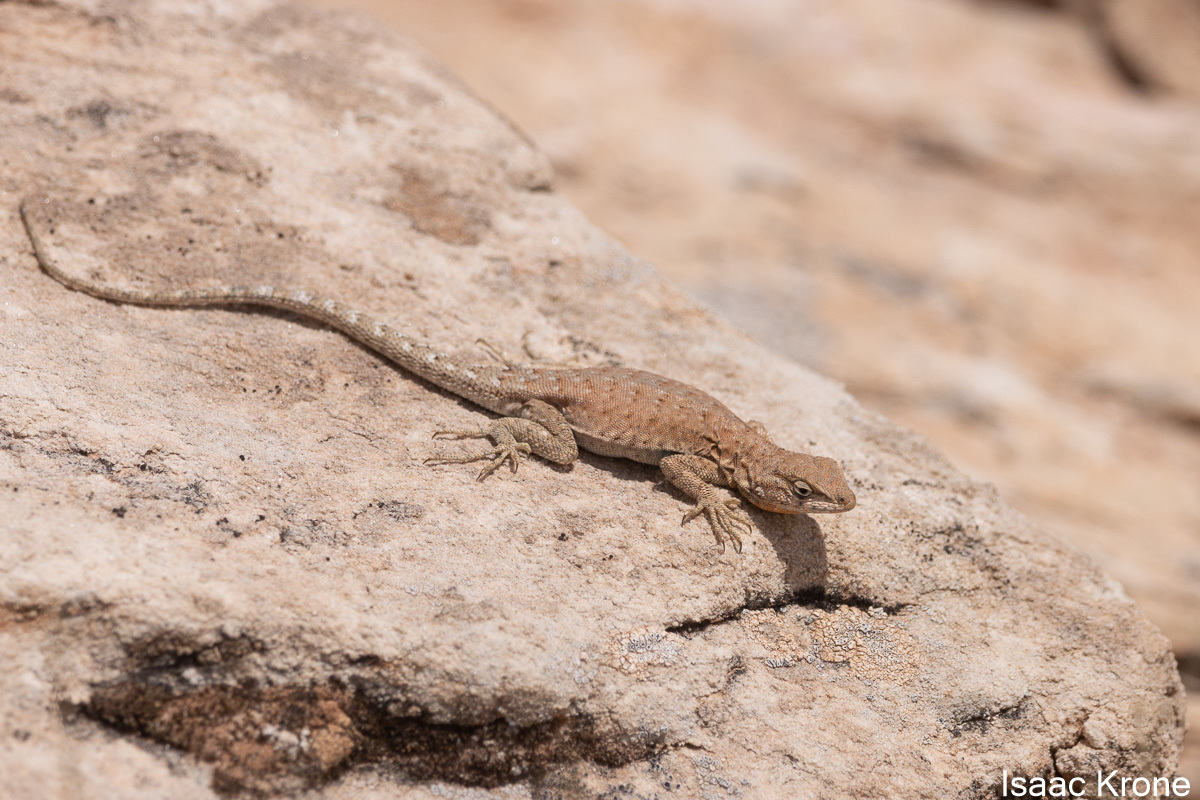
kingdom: Animalia
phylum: Chordata
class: Squamata
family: Phrynosomatidae
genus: Uta
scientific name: Uta stansburiana
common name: Side-blotched lizard
